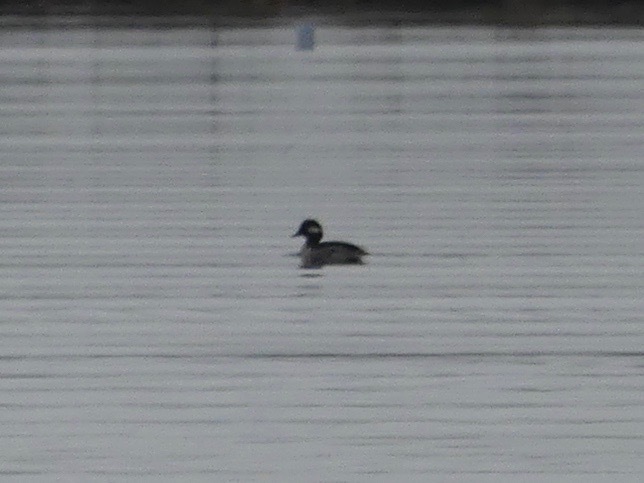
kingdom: Animalia
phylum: Chordata
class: Aves
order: Anseriformes
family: Anatidae
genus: Bucephala
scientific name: Bucephala albeola
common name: Bufflehead
